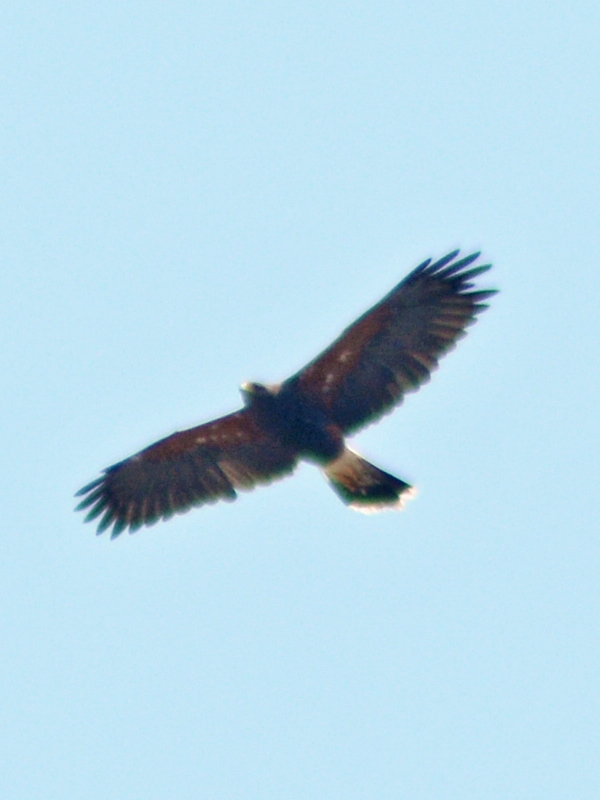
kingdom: Animalia
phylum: Chordata
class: Aves
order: Accipitriformes
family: Accipitridae
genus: Parabuteo
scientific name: Parabuteo unicinctus
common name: Harris's hawk
